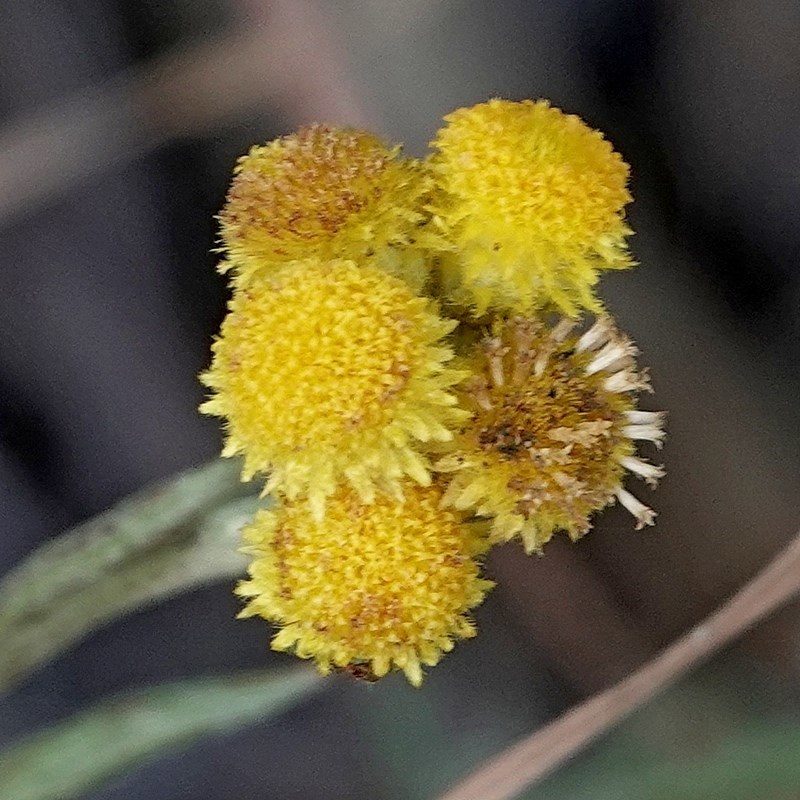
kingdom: Plantae
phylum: Tracheophyta
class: Magnoliopsida
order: Asterales
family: Asteraceae
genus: Chrysocephalum
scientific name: Chrysocephalum apiculatum
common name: Common everlasting
